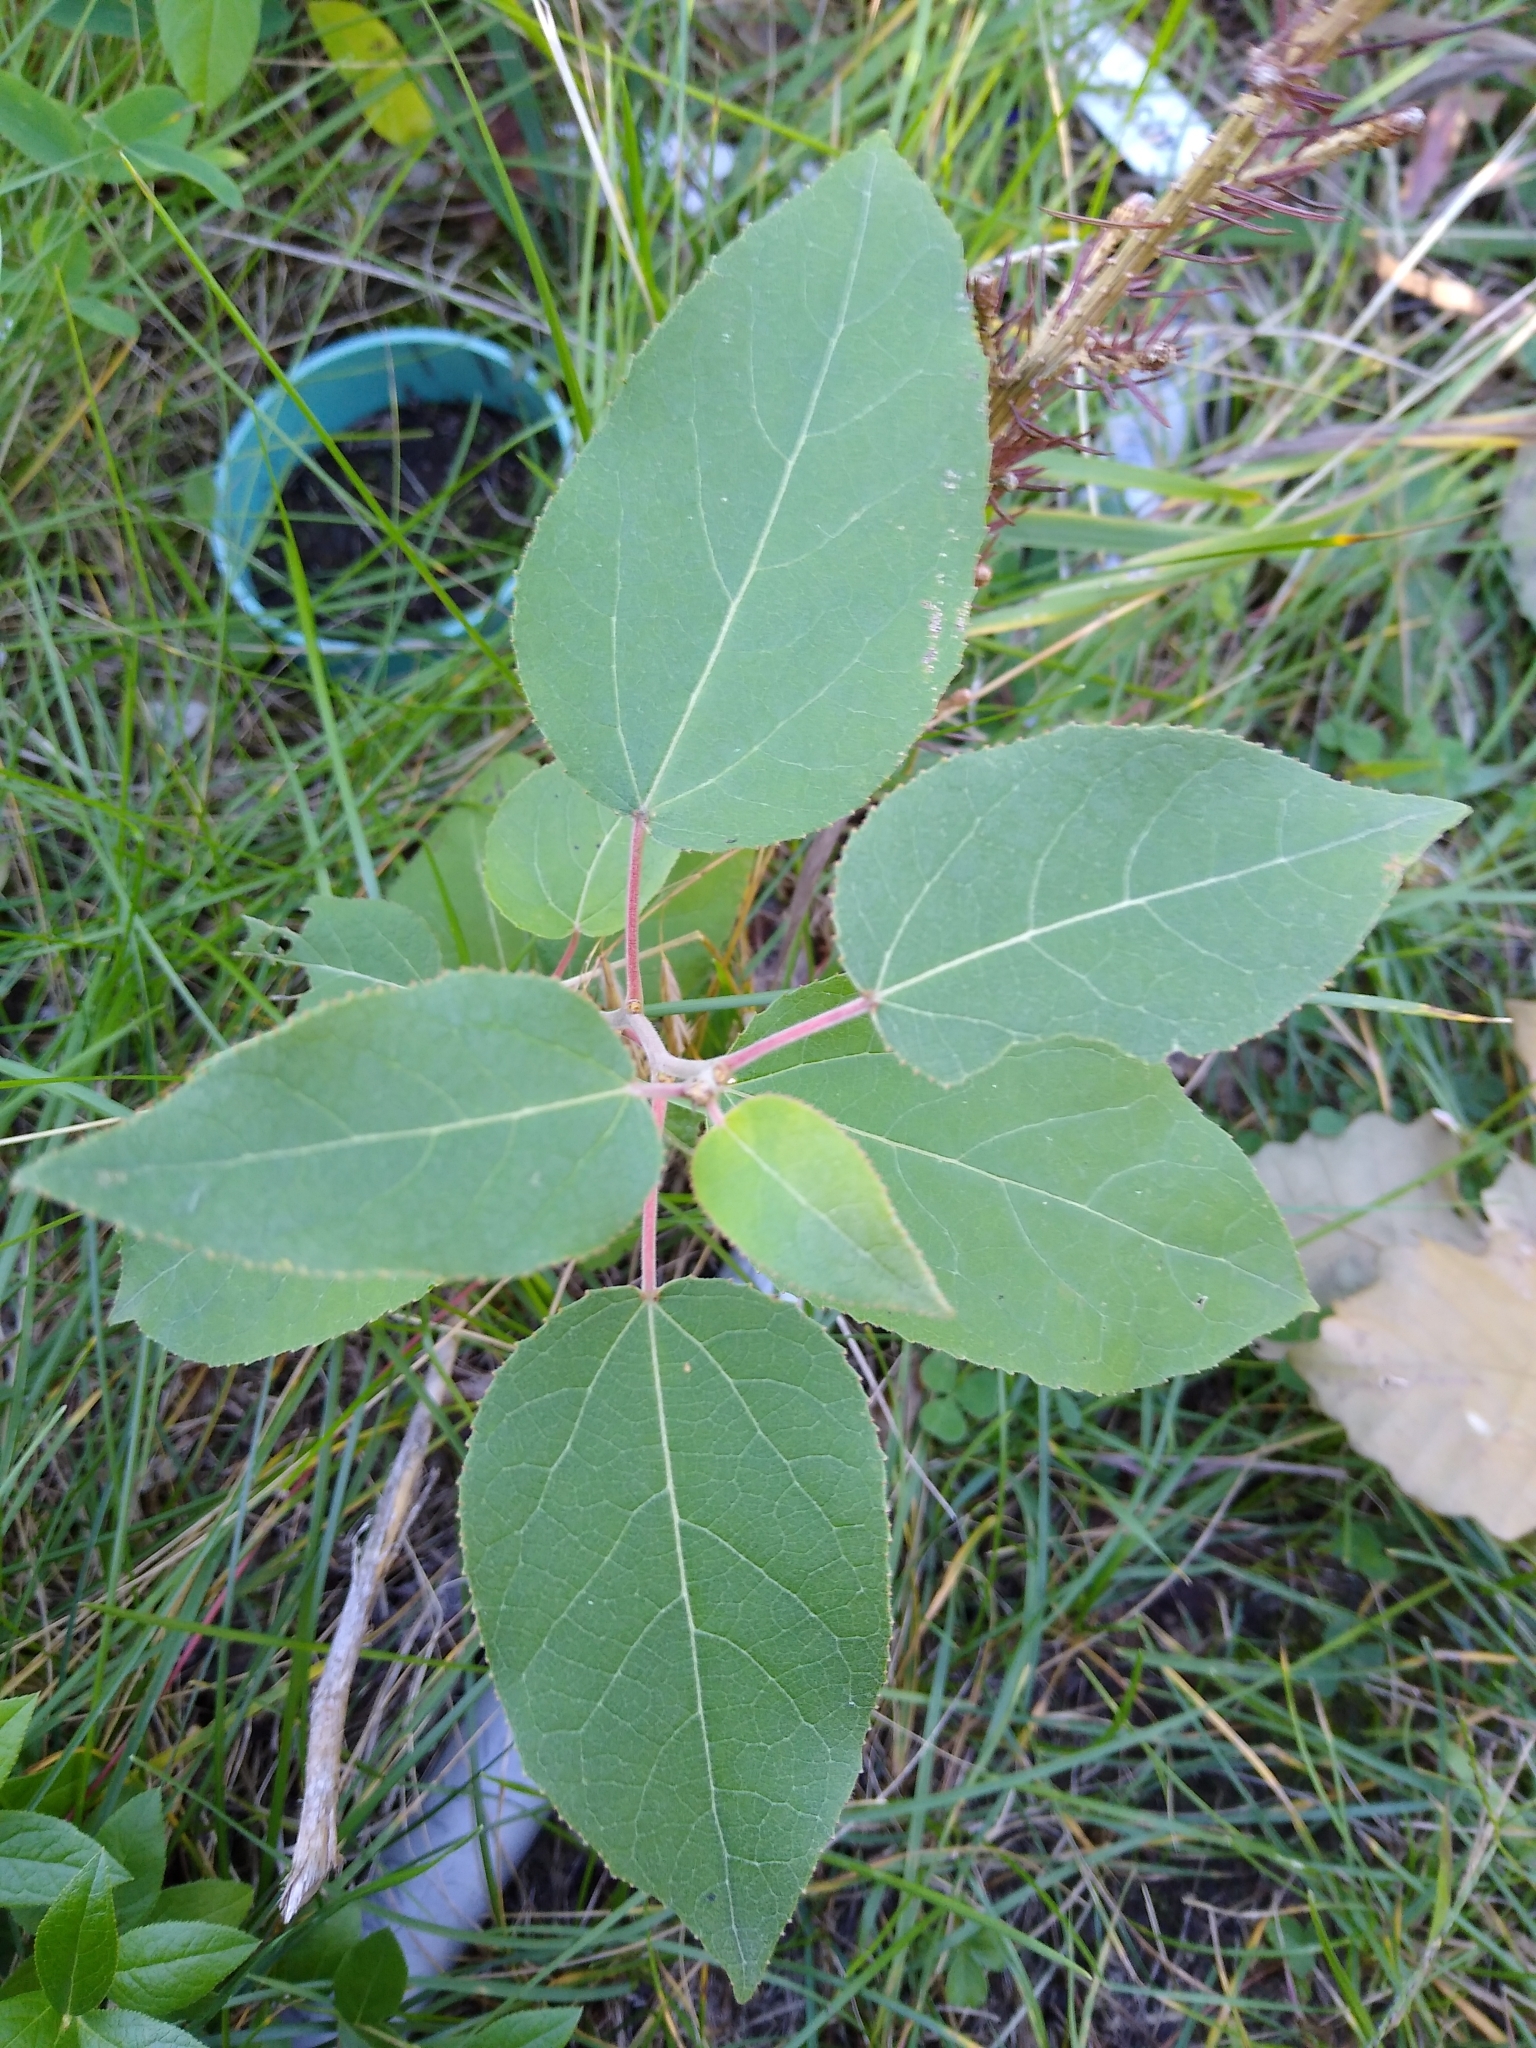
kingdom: Plantae
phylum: Tracheophyta
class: Magnoliopsida
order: Malpighiales
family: Salicaceae
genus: Populus
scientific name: Populus balsamifera
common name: Balsam poplar
